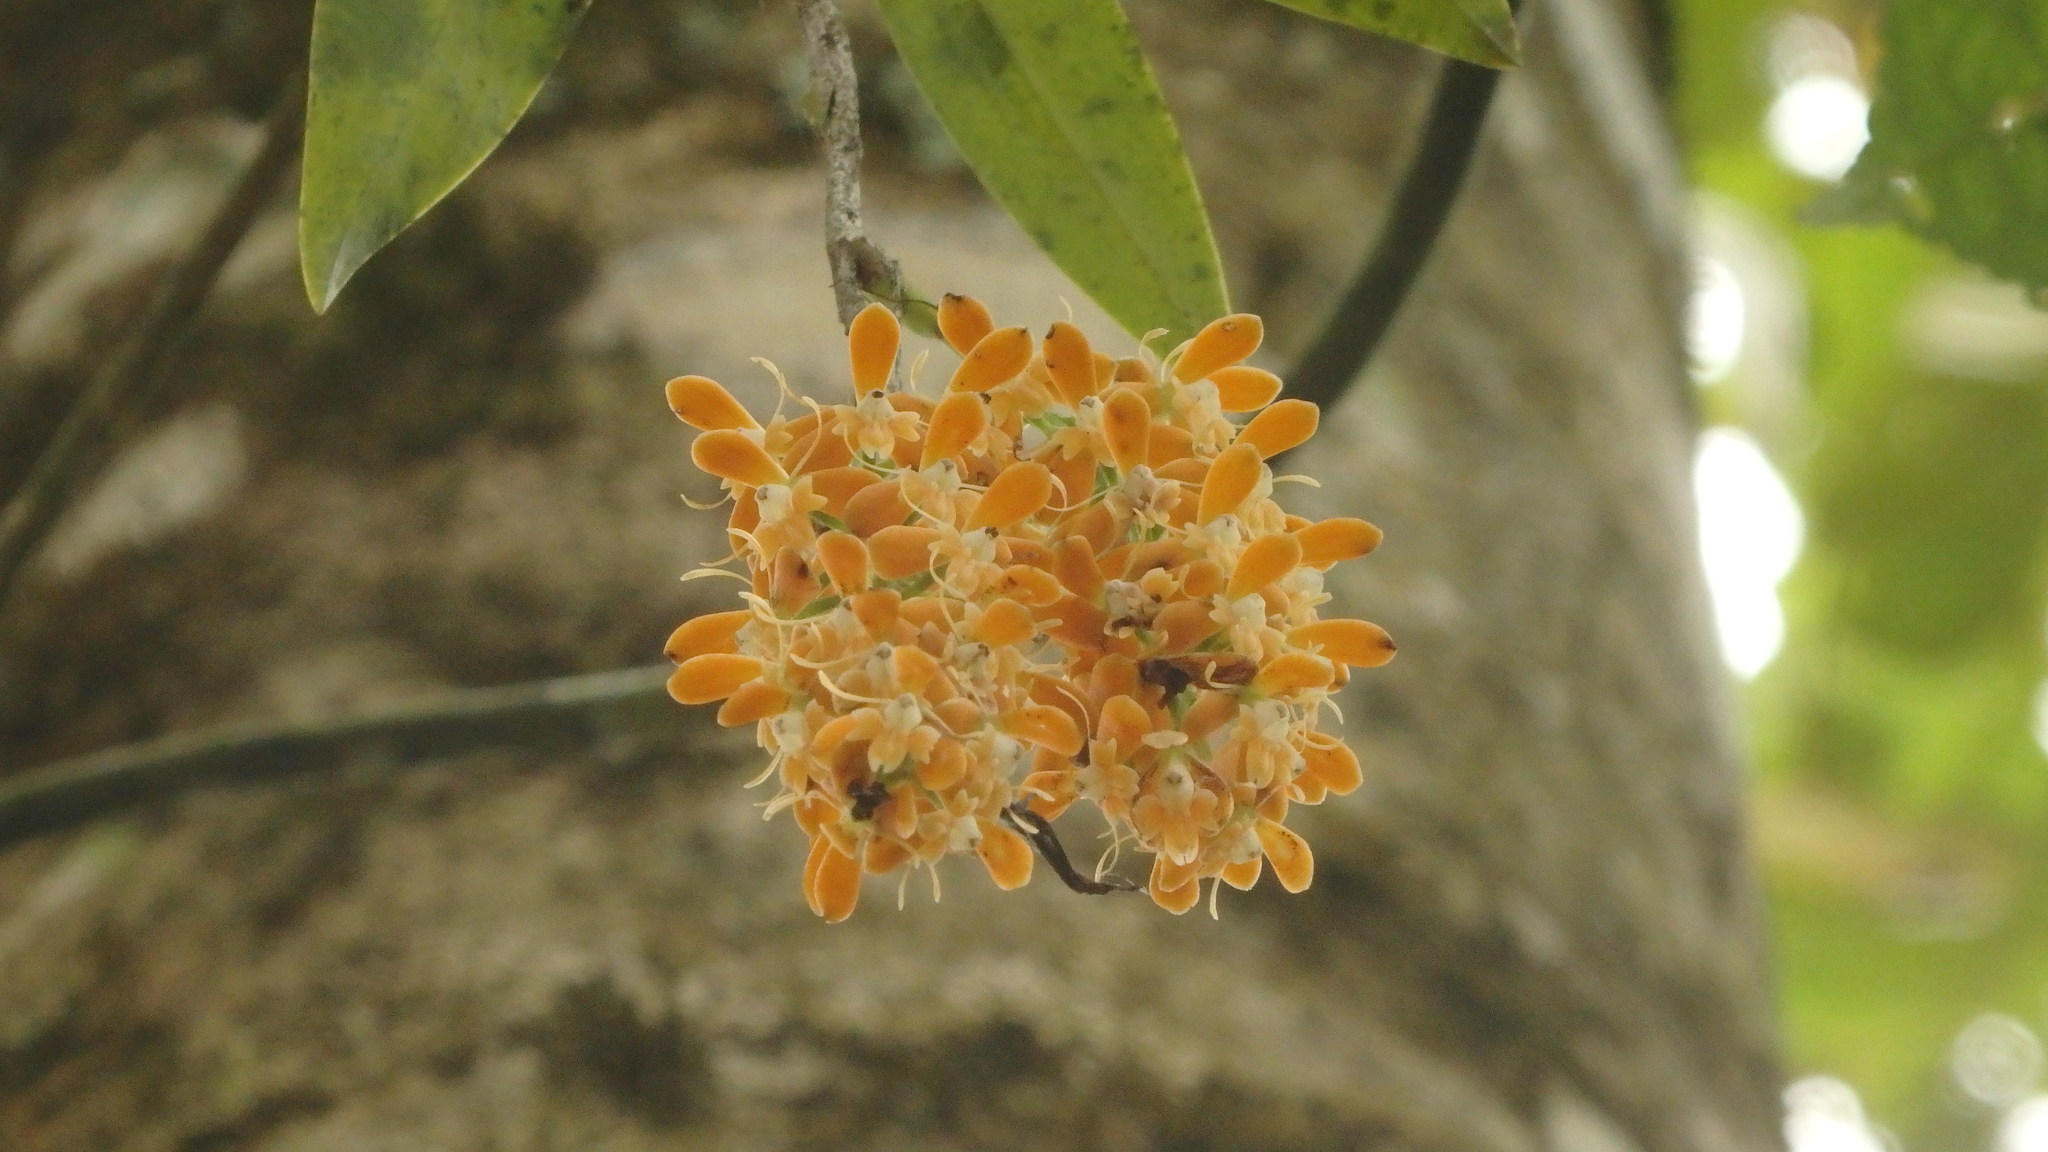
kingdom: Plantae
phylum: Tracheophyta
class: Liliopsida
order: Asparagales
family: Orchidaceae
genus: Epidendrum
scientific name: Epidendrum polyanthum
